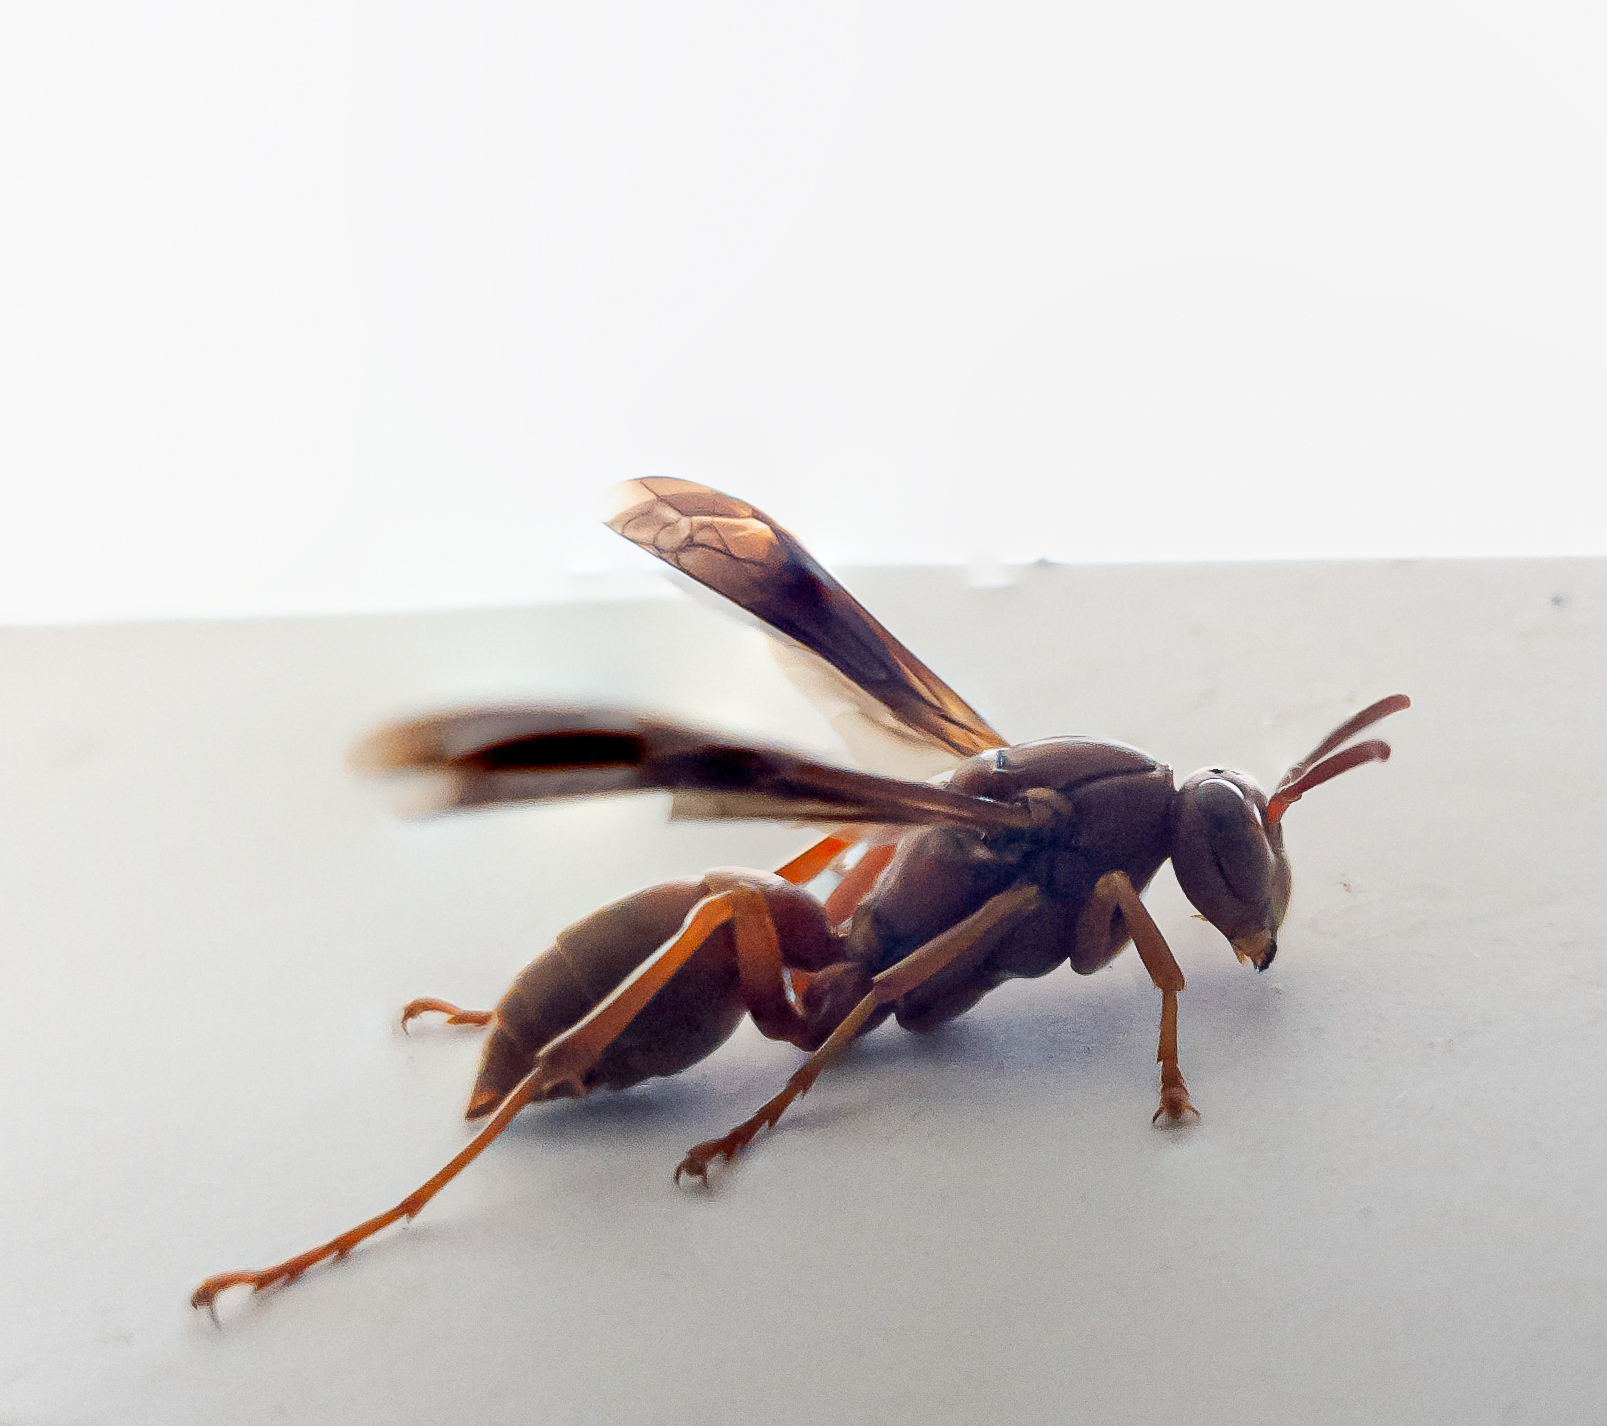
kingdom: Animalia
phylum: Arthropoda
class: Insecta
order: Hymenoptera
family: Vespidae
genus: Fuscopolistes
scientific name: Fuscopolistes
